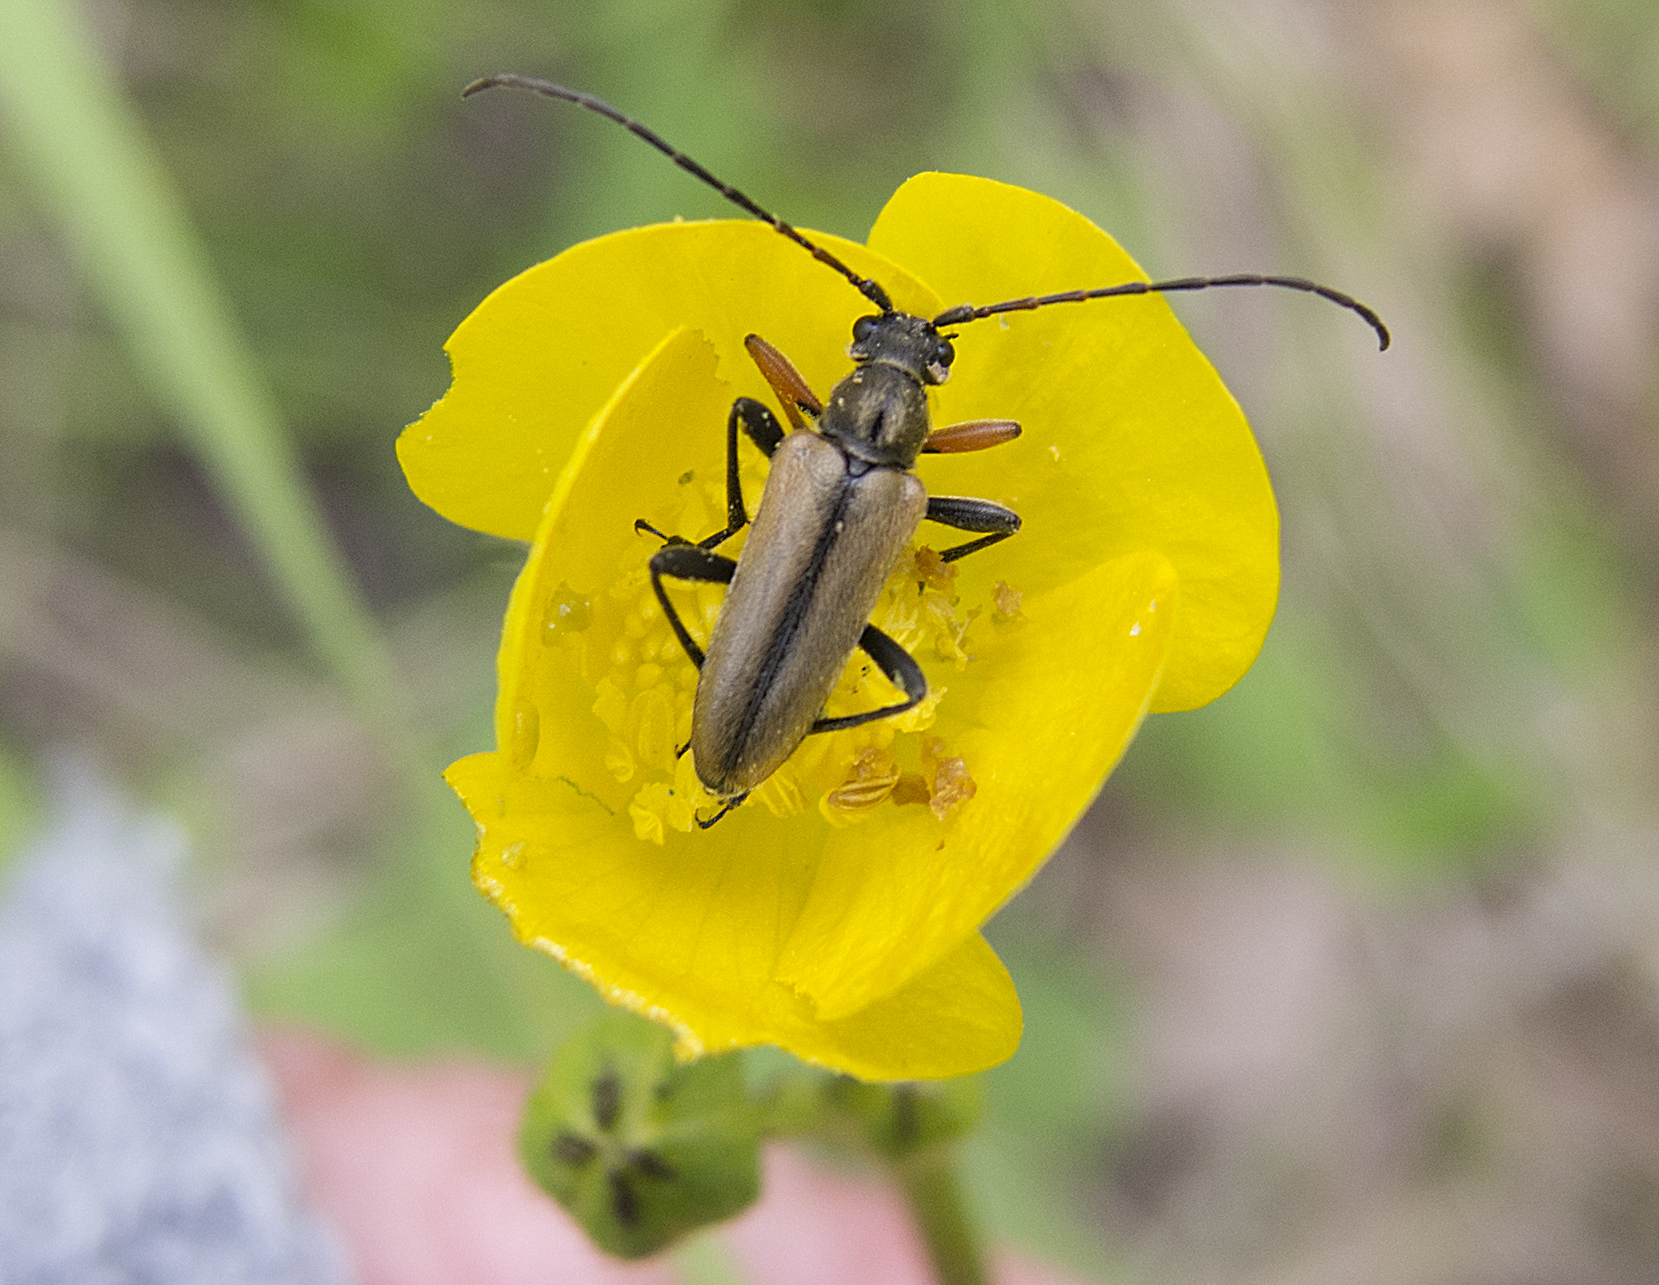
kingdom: Animalia
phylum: Arthropoda
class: Insecta
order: Coleoptera
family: Cerambycidae
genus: Cortodera
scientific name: Cortodera flavimana
